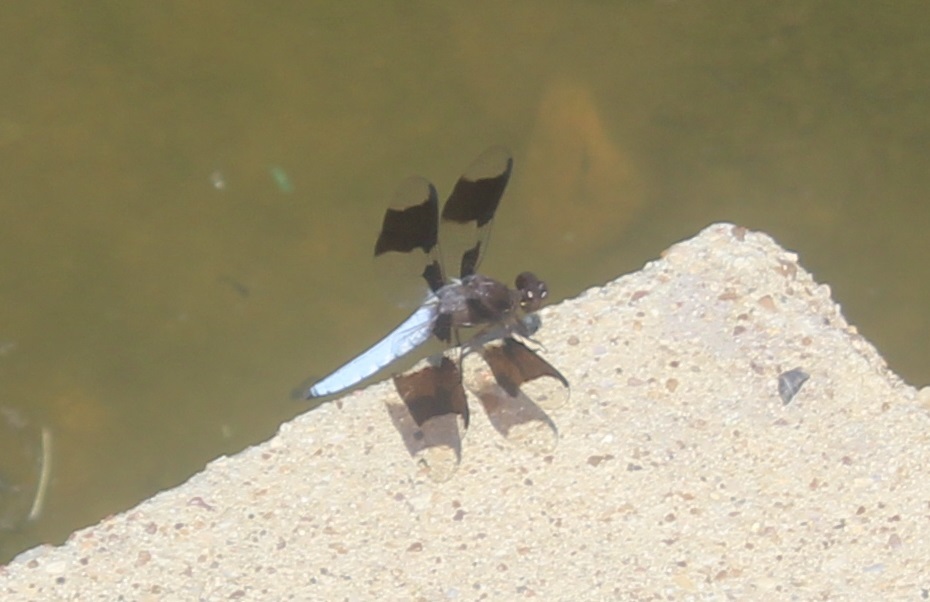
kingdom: Animalia
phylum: Arthropoda
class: Insecta
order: Odonata
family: Libellulidae
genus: Plathemis
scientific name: Plathemis lydia
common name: Common whitetail
